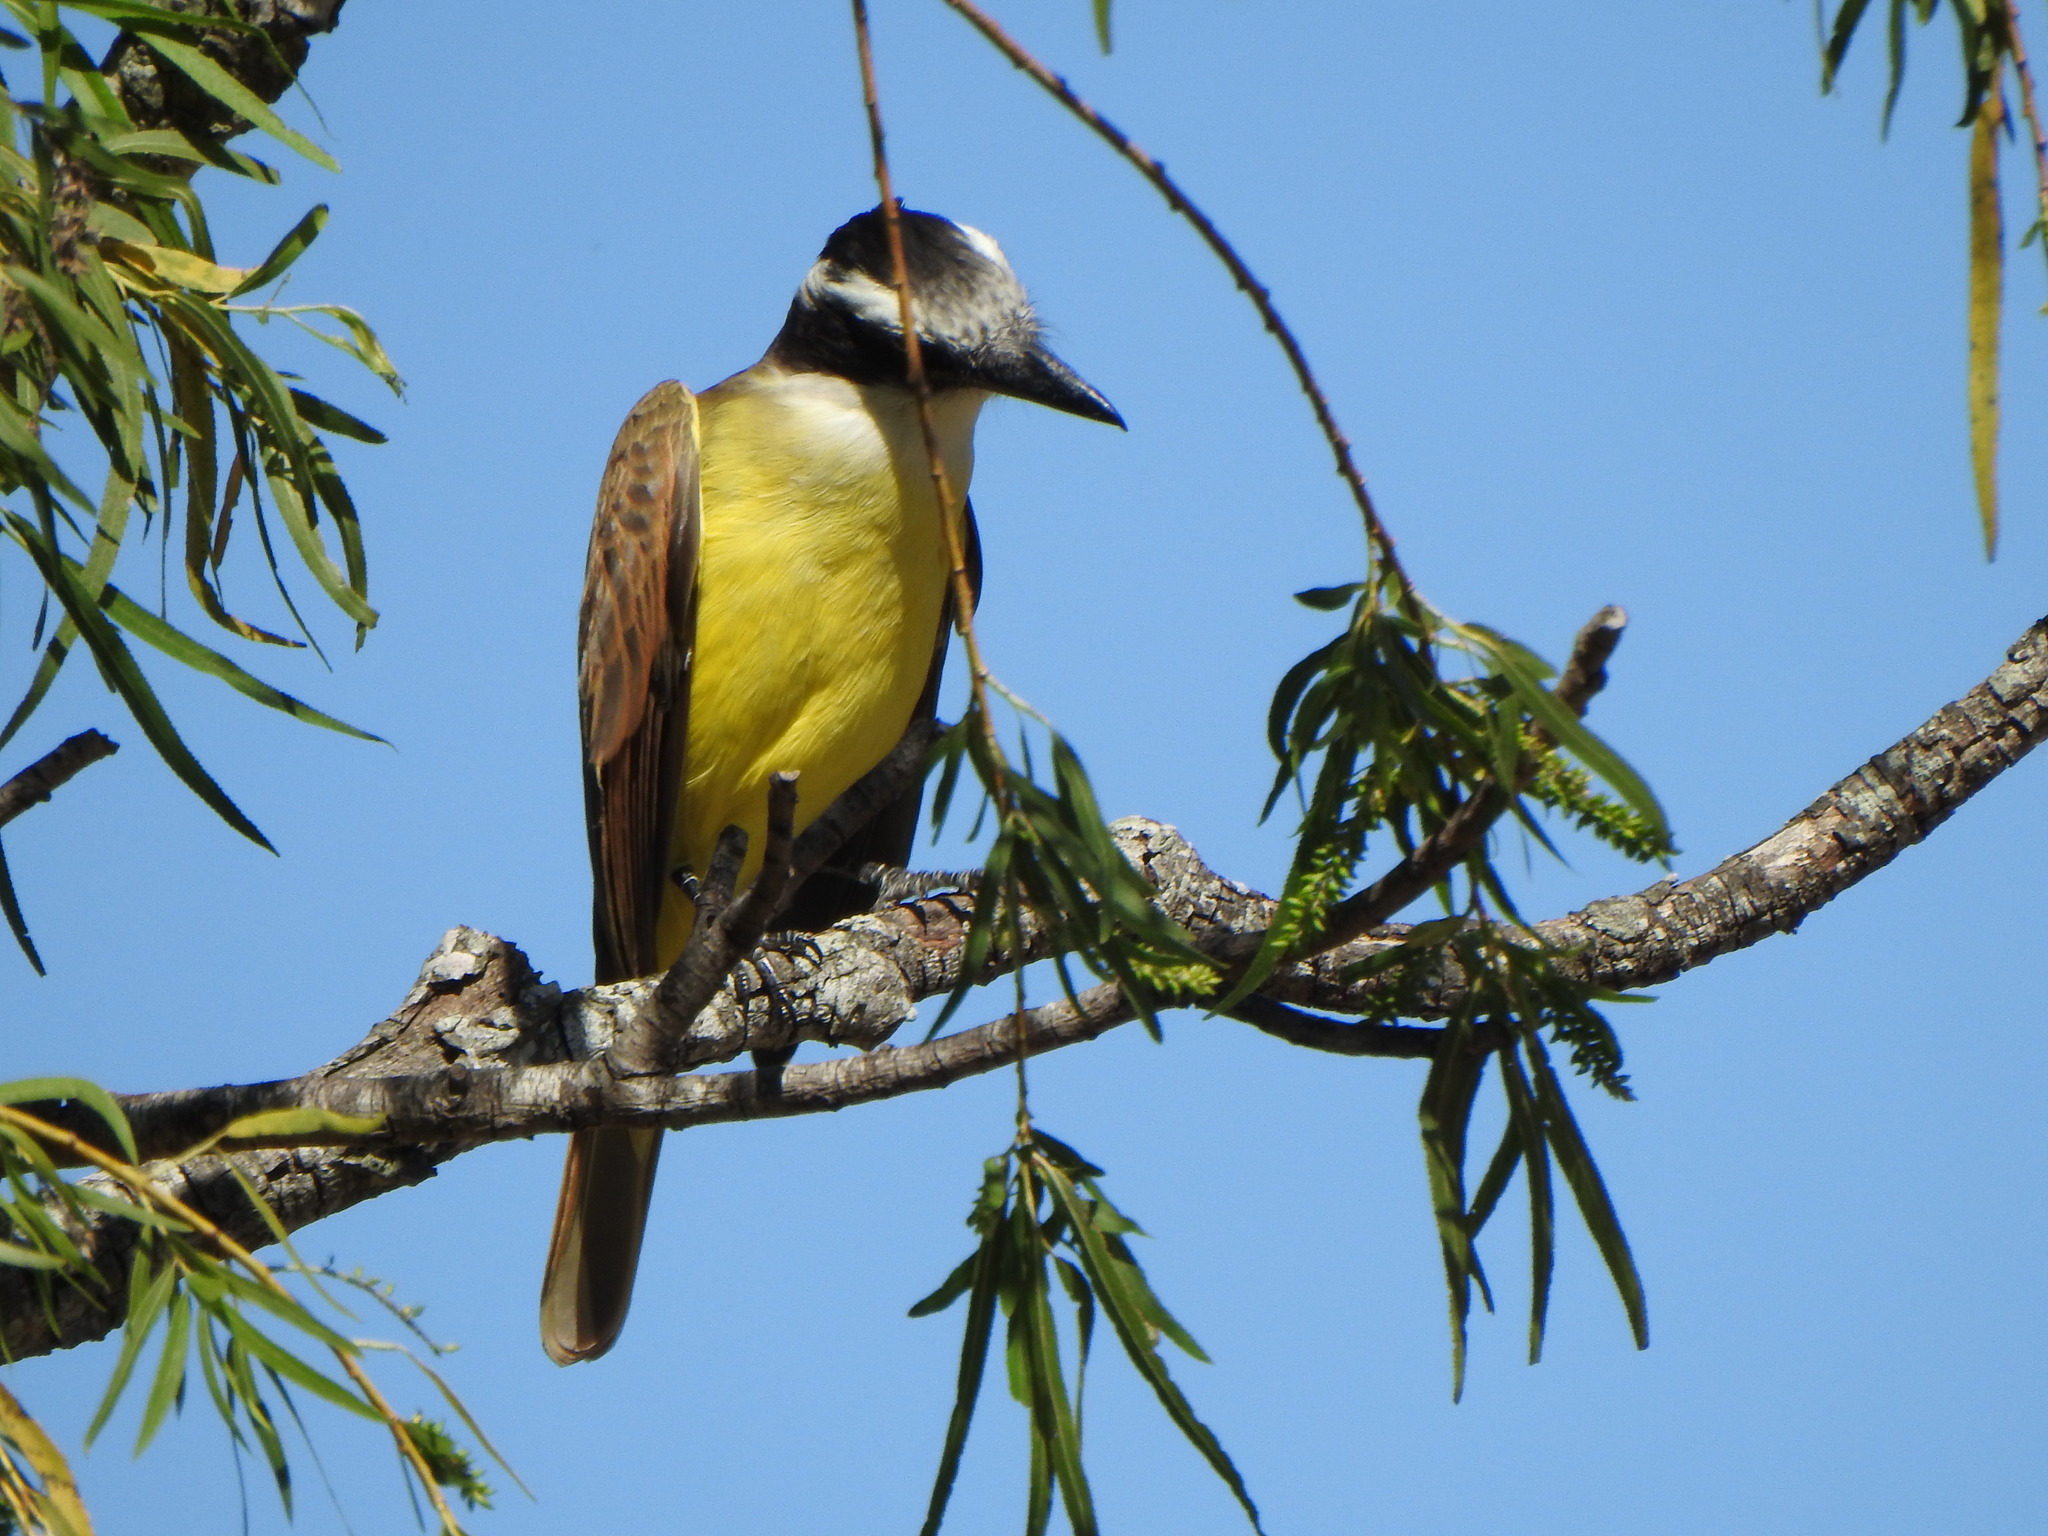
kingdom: Animalia
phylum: Chordata
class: Aves
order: Passeriformes
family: Tyrannidae
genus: Pitangus
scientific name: Pitangus sulphuratus
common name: Great kiskadee
